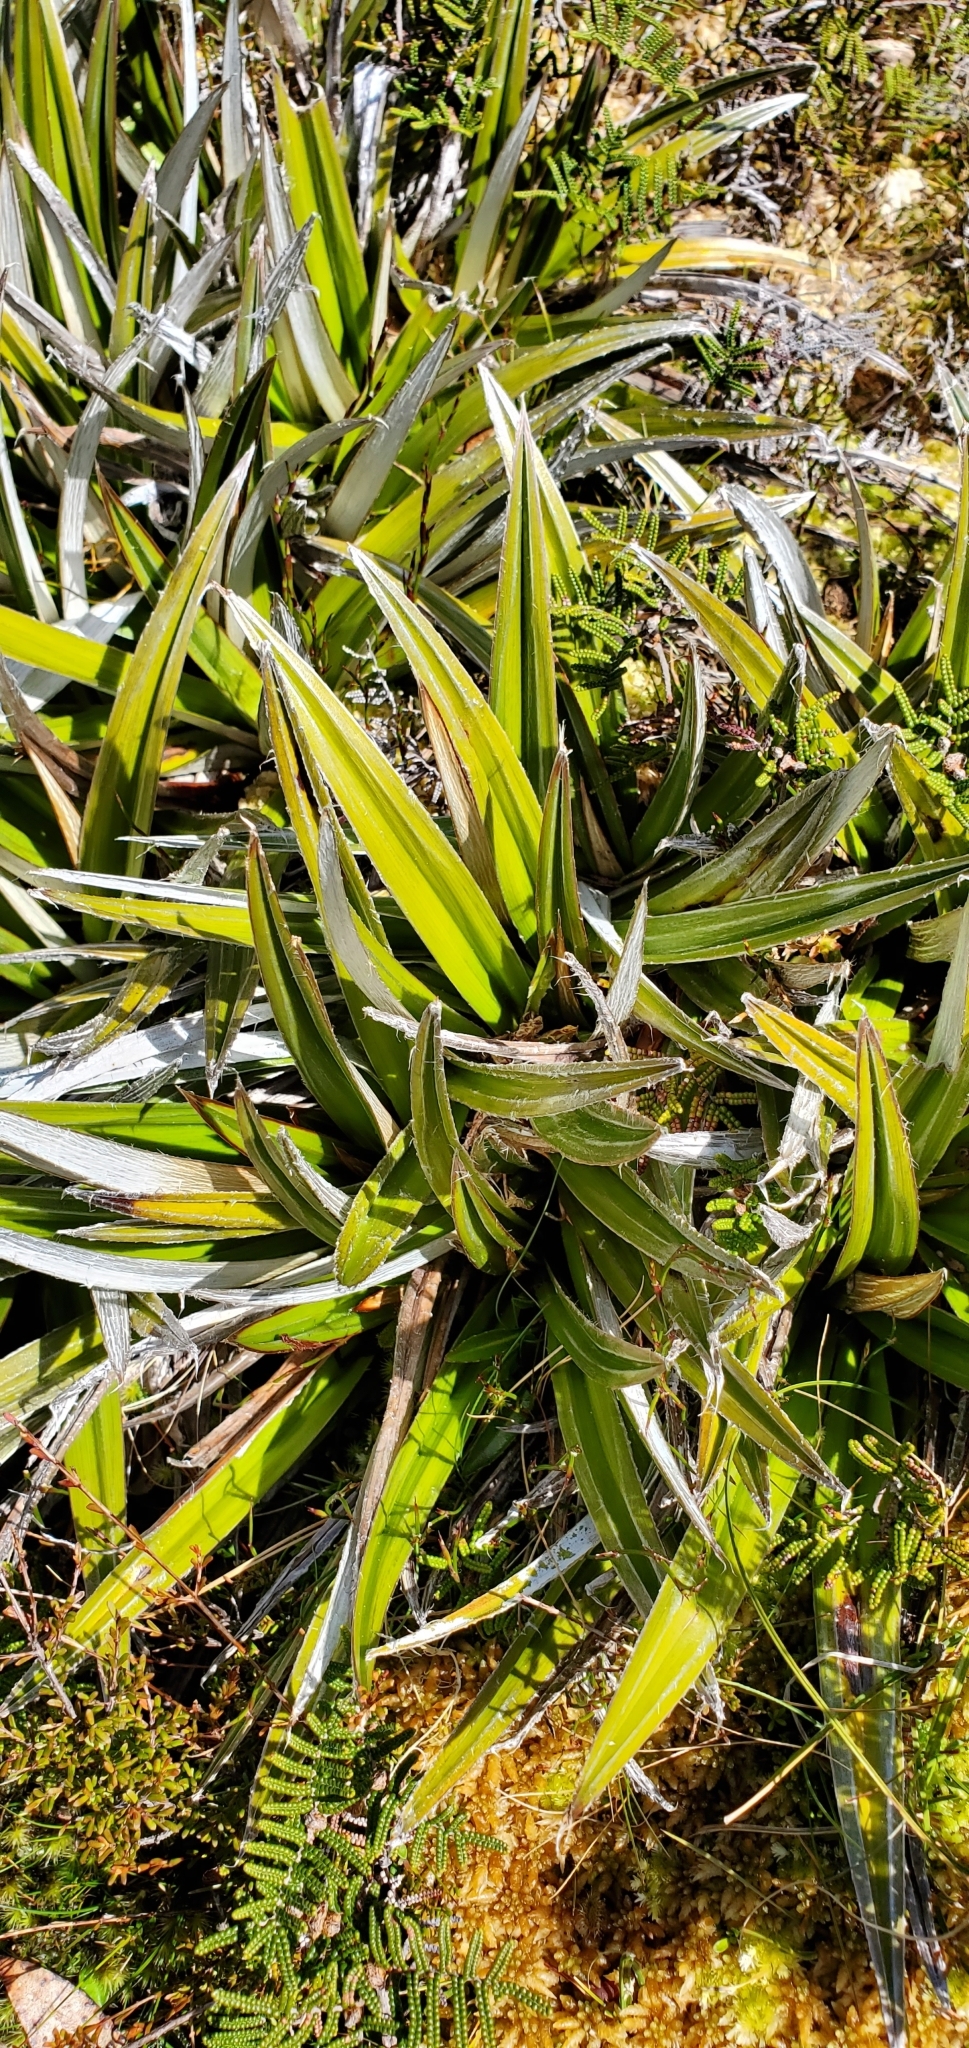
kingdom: Plantae
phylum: Tracheophyta
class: Liliopsida
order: Asparagales
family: Asteliaceae
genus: Astelia
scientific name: Astelia alpina
